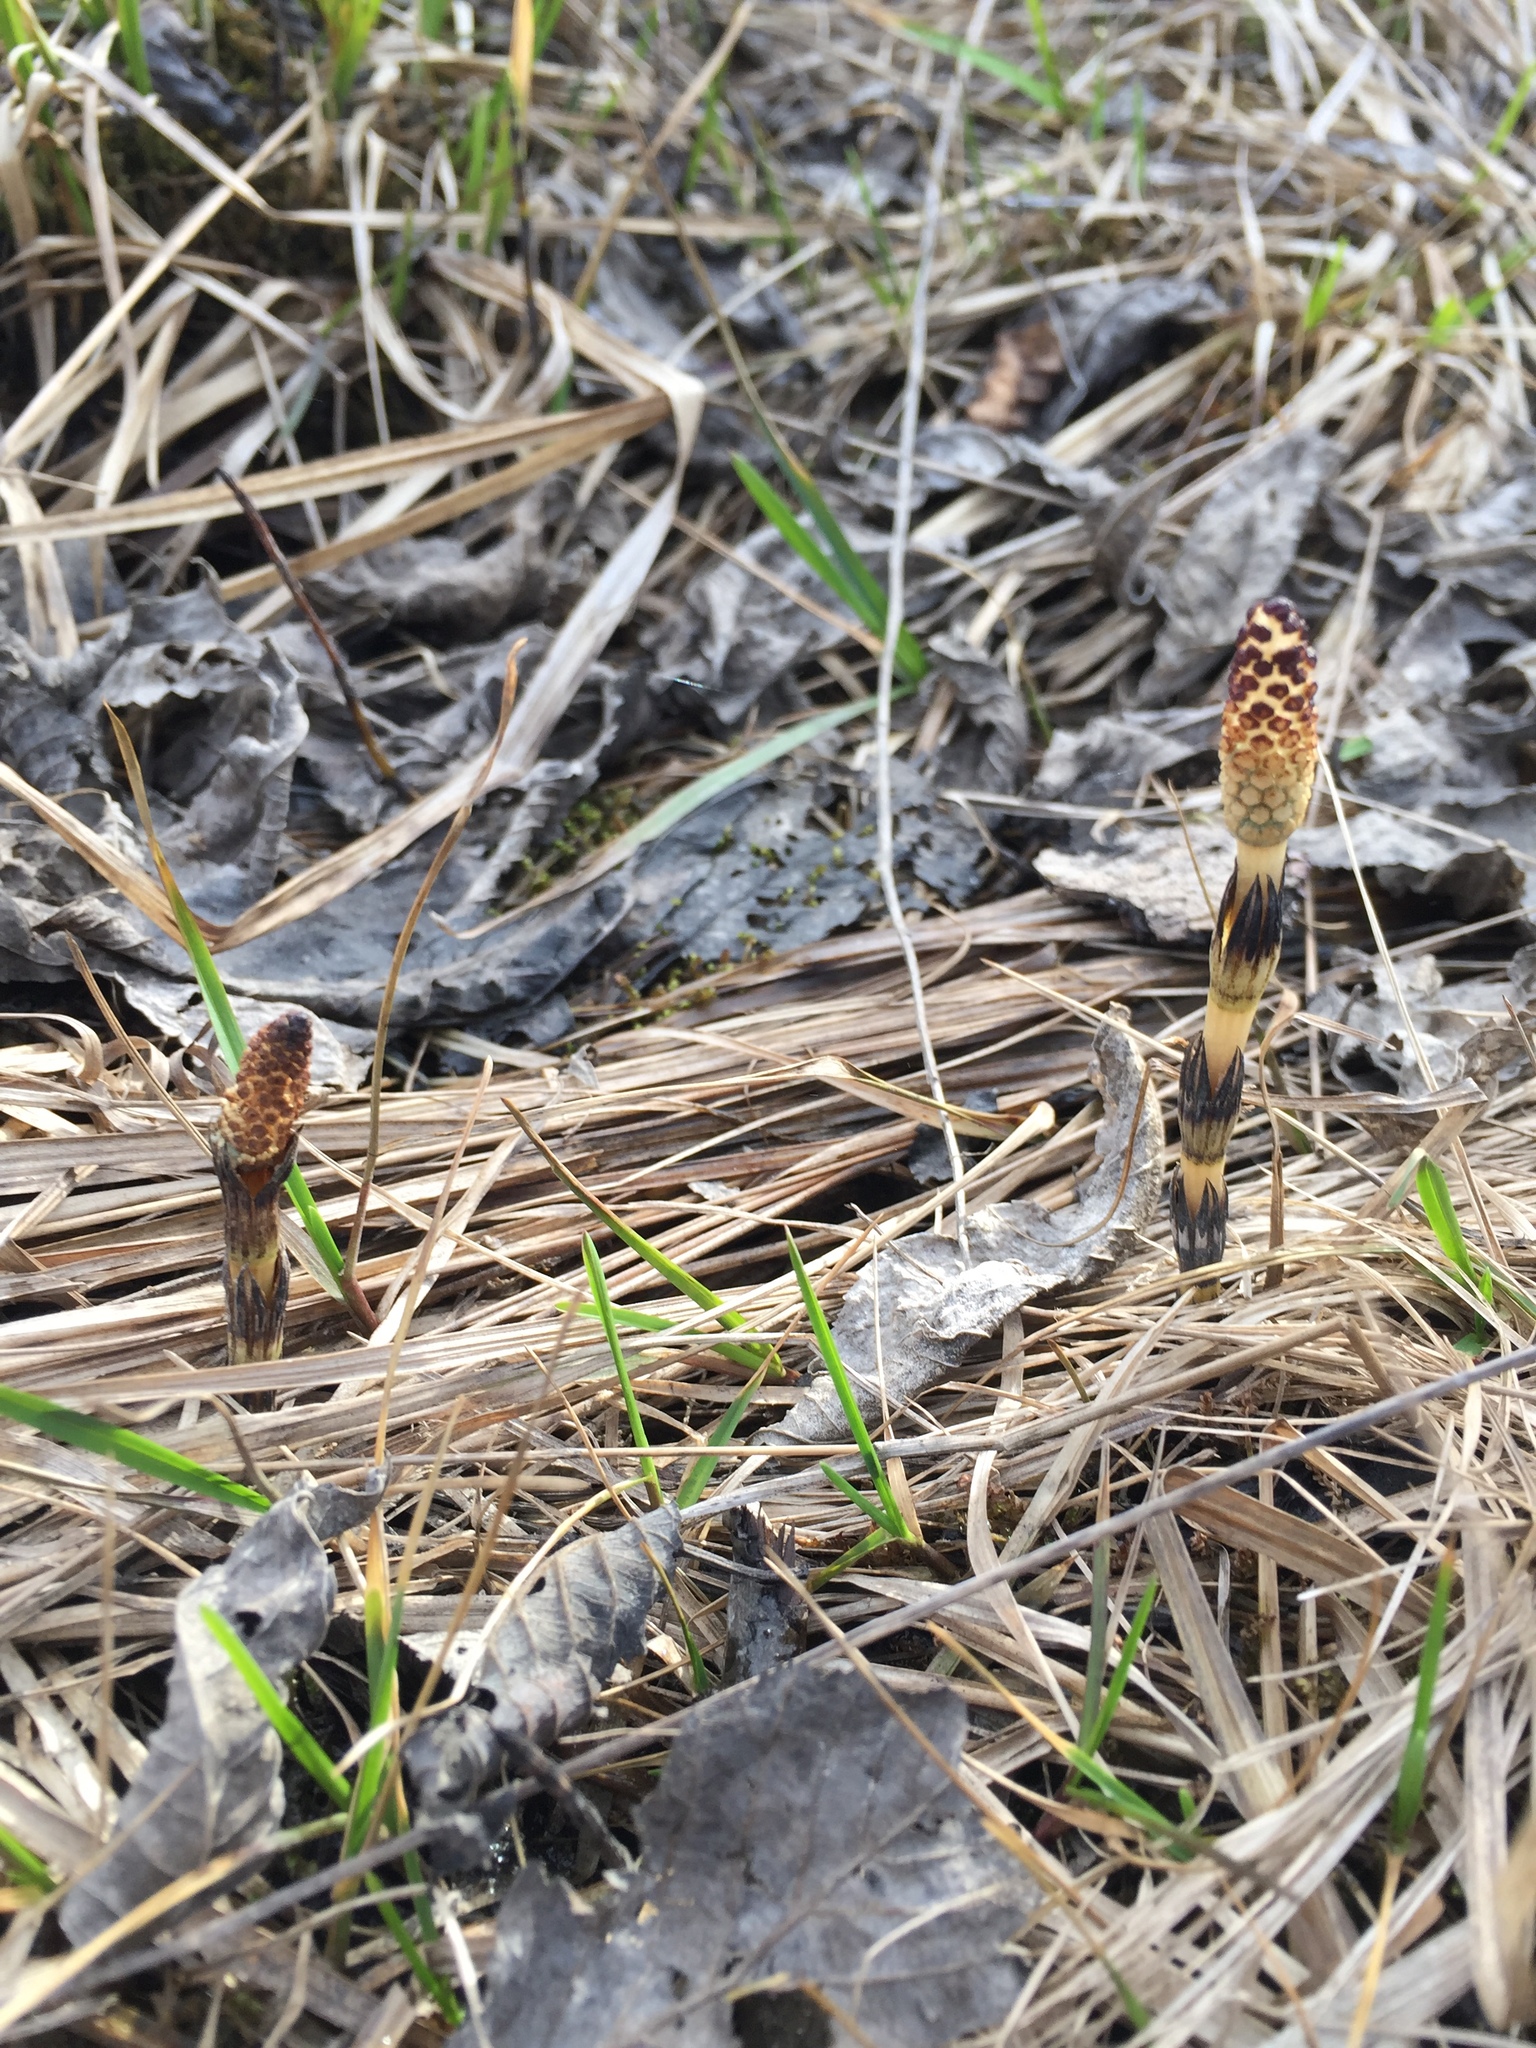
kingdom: Plantae
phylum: Tracheophyta
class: Polypodiopsida
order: Equisetales
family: Equisetaceae
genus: Equisetum
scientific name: Equisetum arvense
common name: Field horsetail
